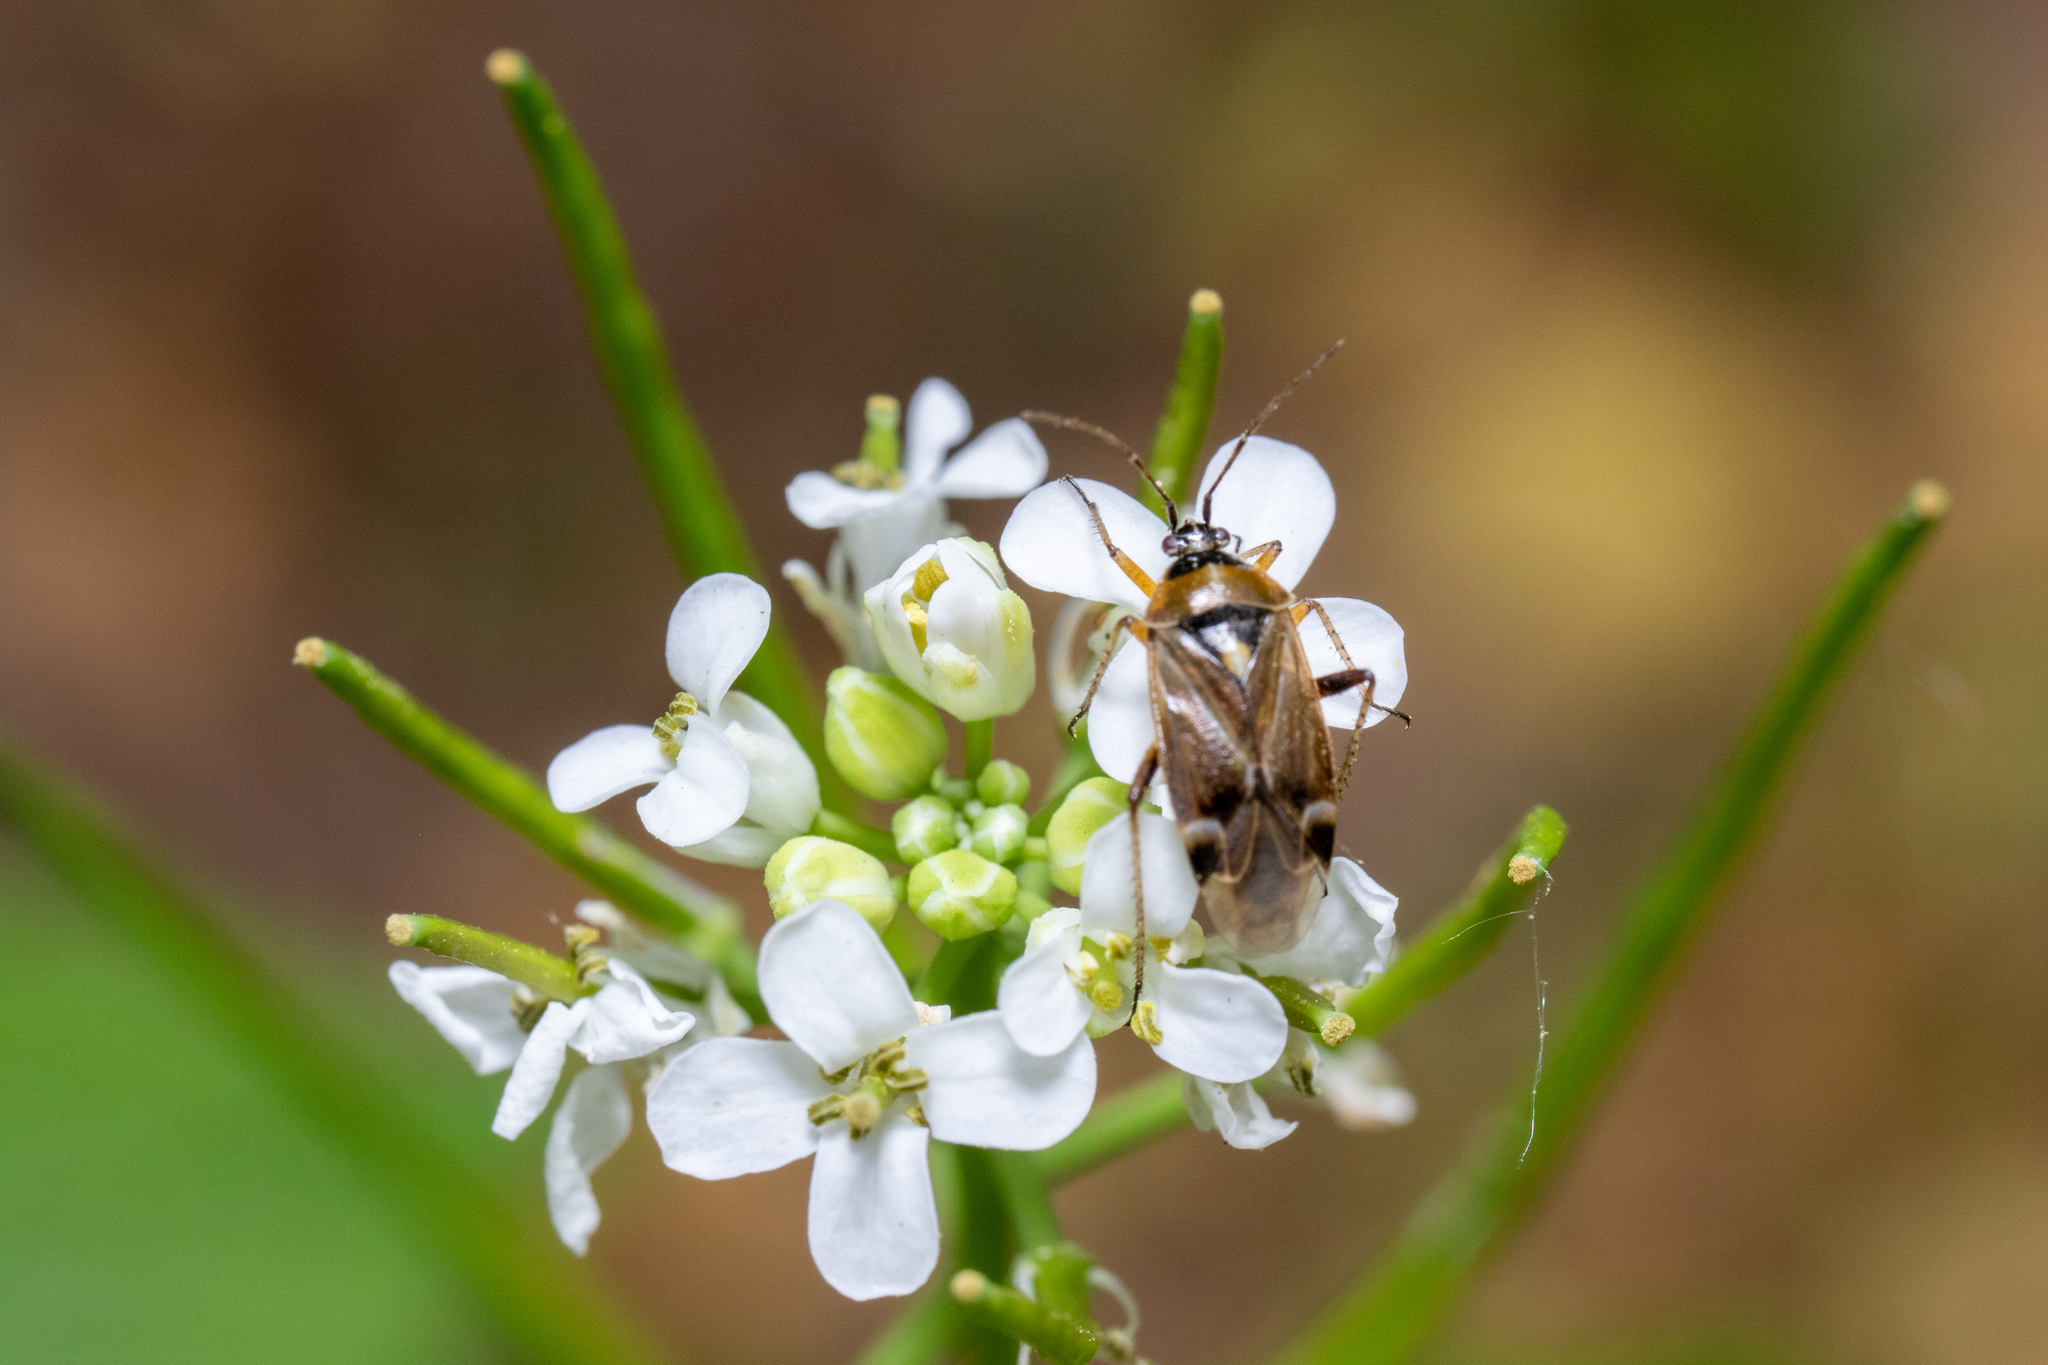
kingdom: Animalia
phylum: Arthropoda
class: Insecta
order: Hemiptera
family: Miridae
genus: Harpocera
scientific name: Harpocera thoracica
